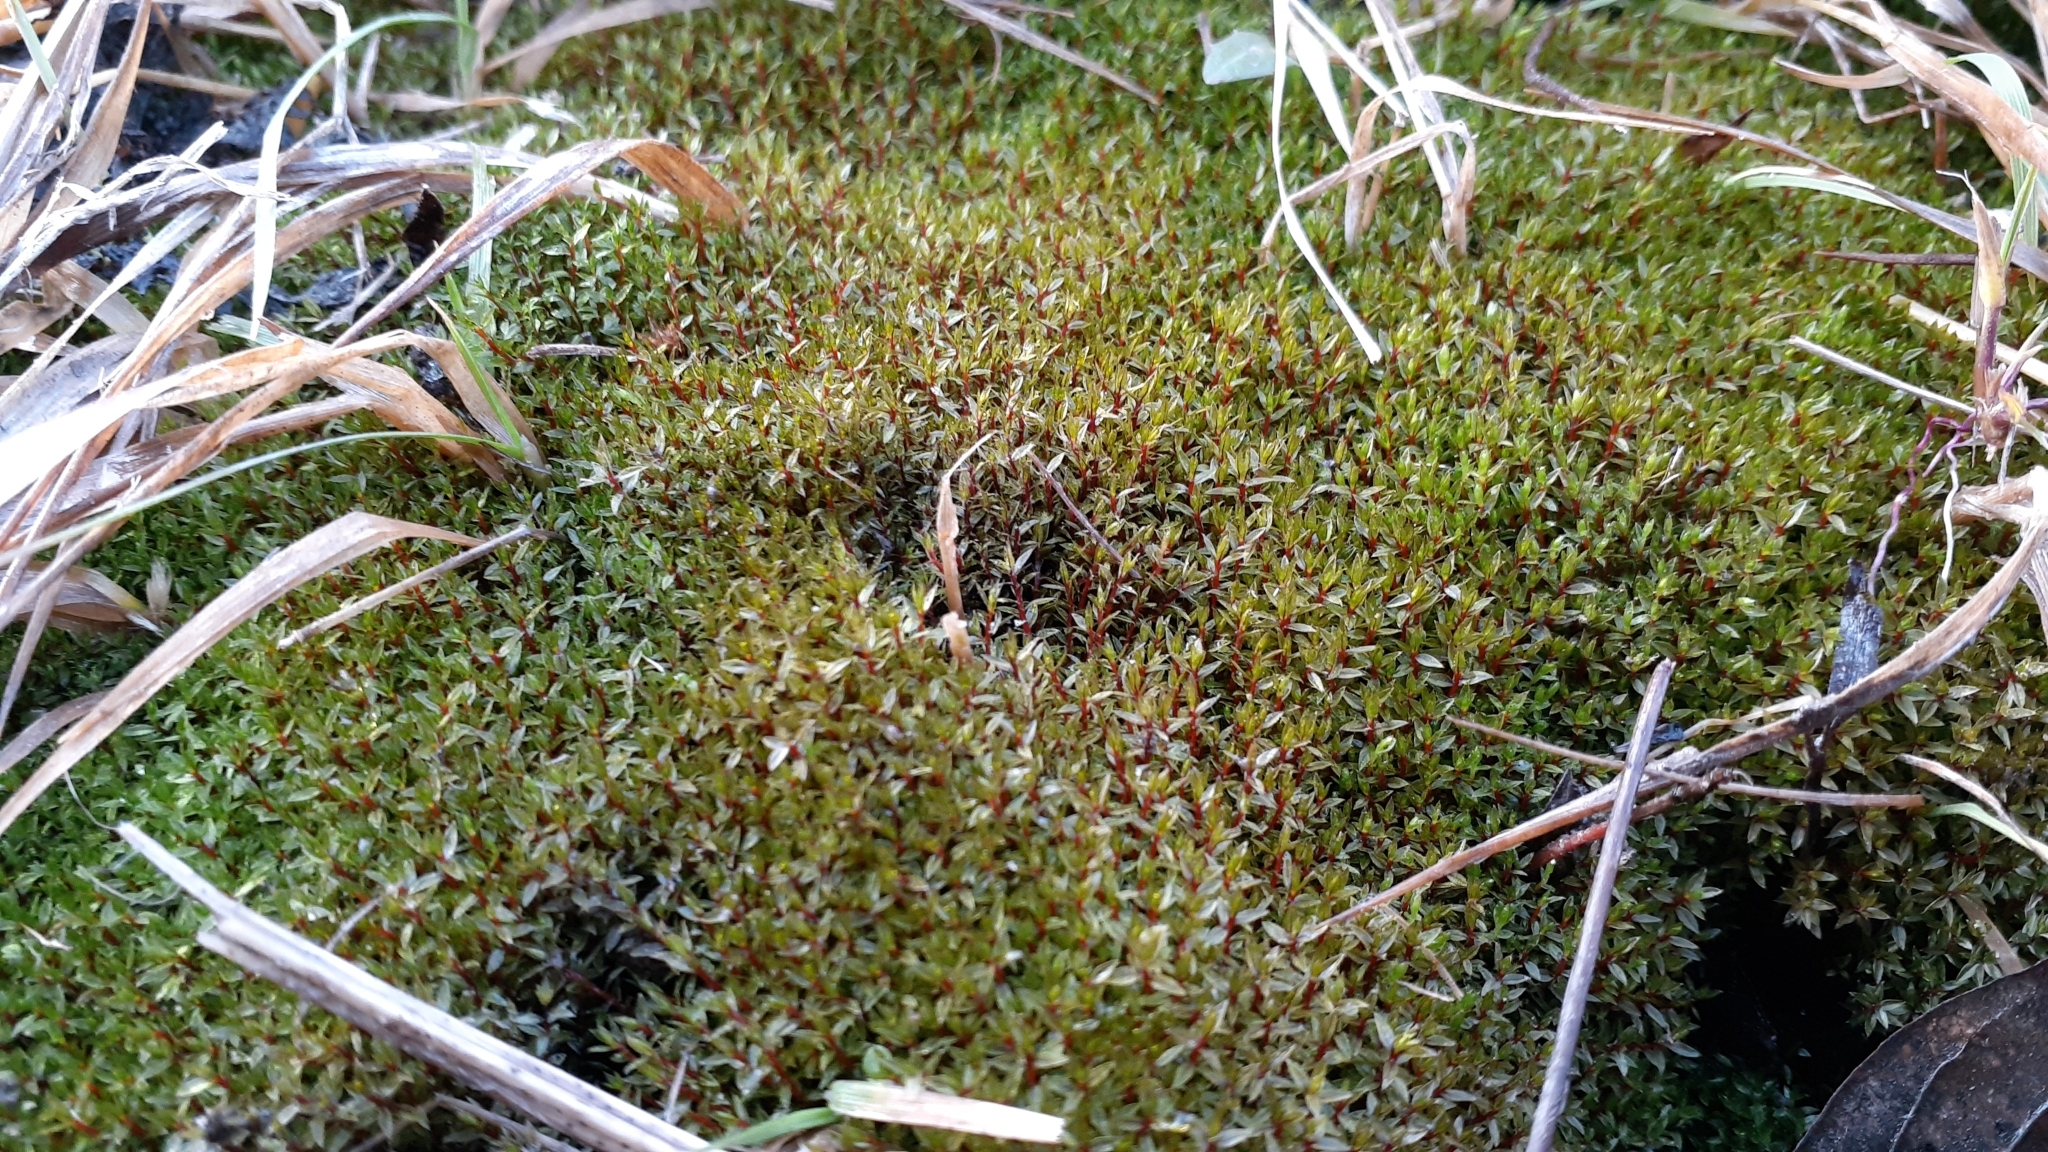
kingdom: Plantae
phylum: Bryophyta
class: Bryopsida
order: Bryales
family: Bryaceae
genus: Ptychostomum
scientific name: Ptychostomum pseudotriquetrum
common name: Long-leaved thread moss
